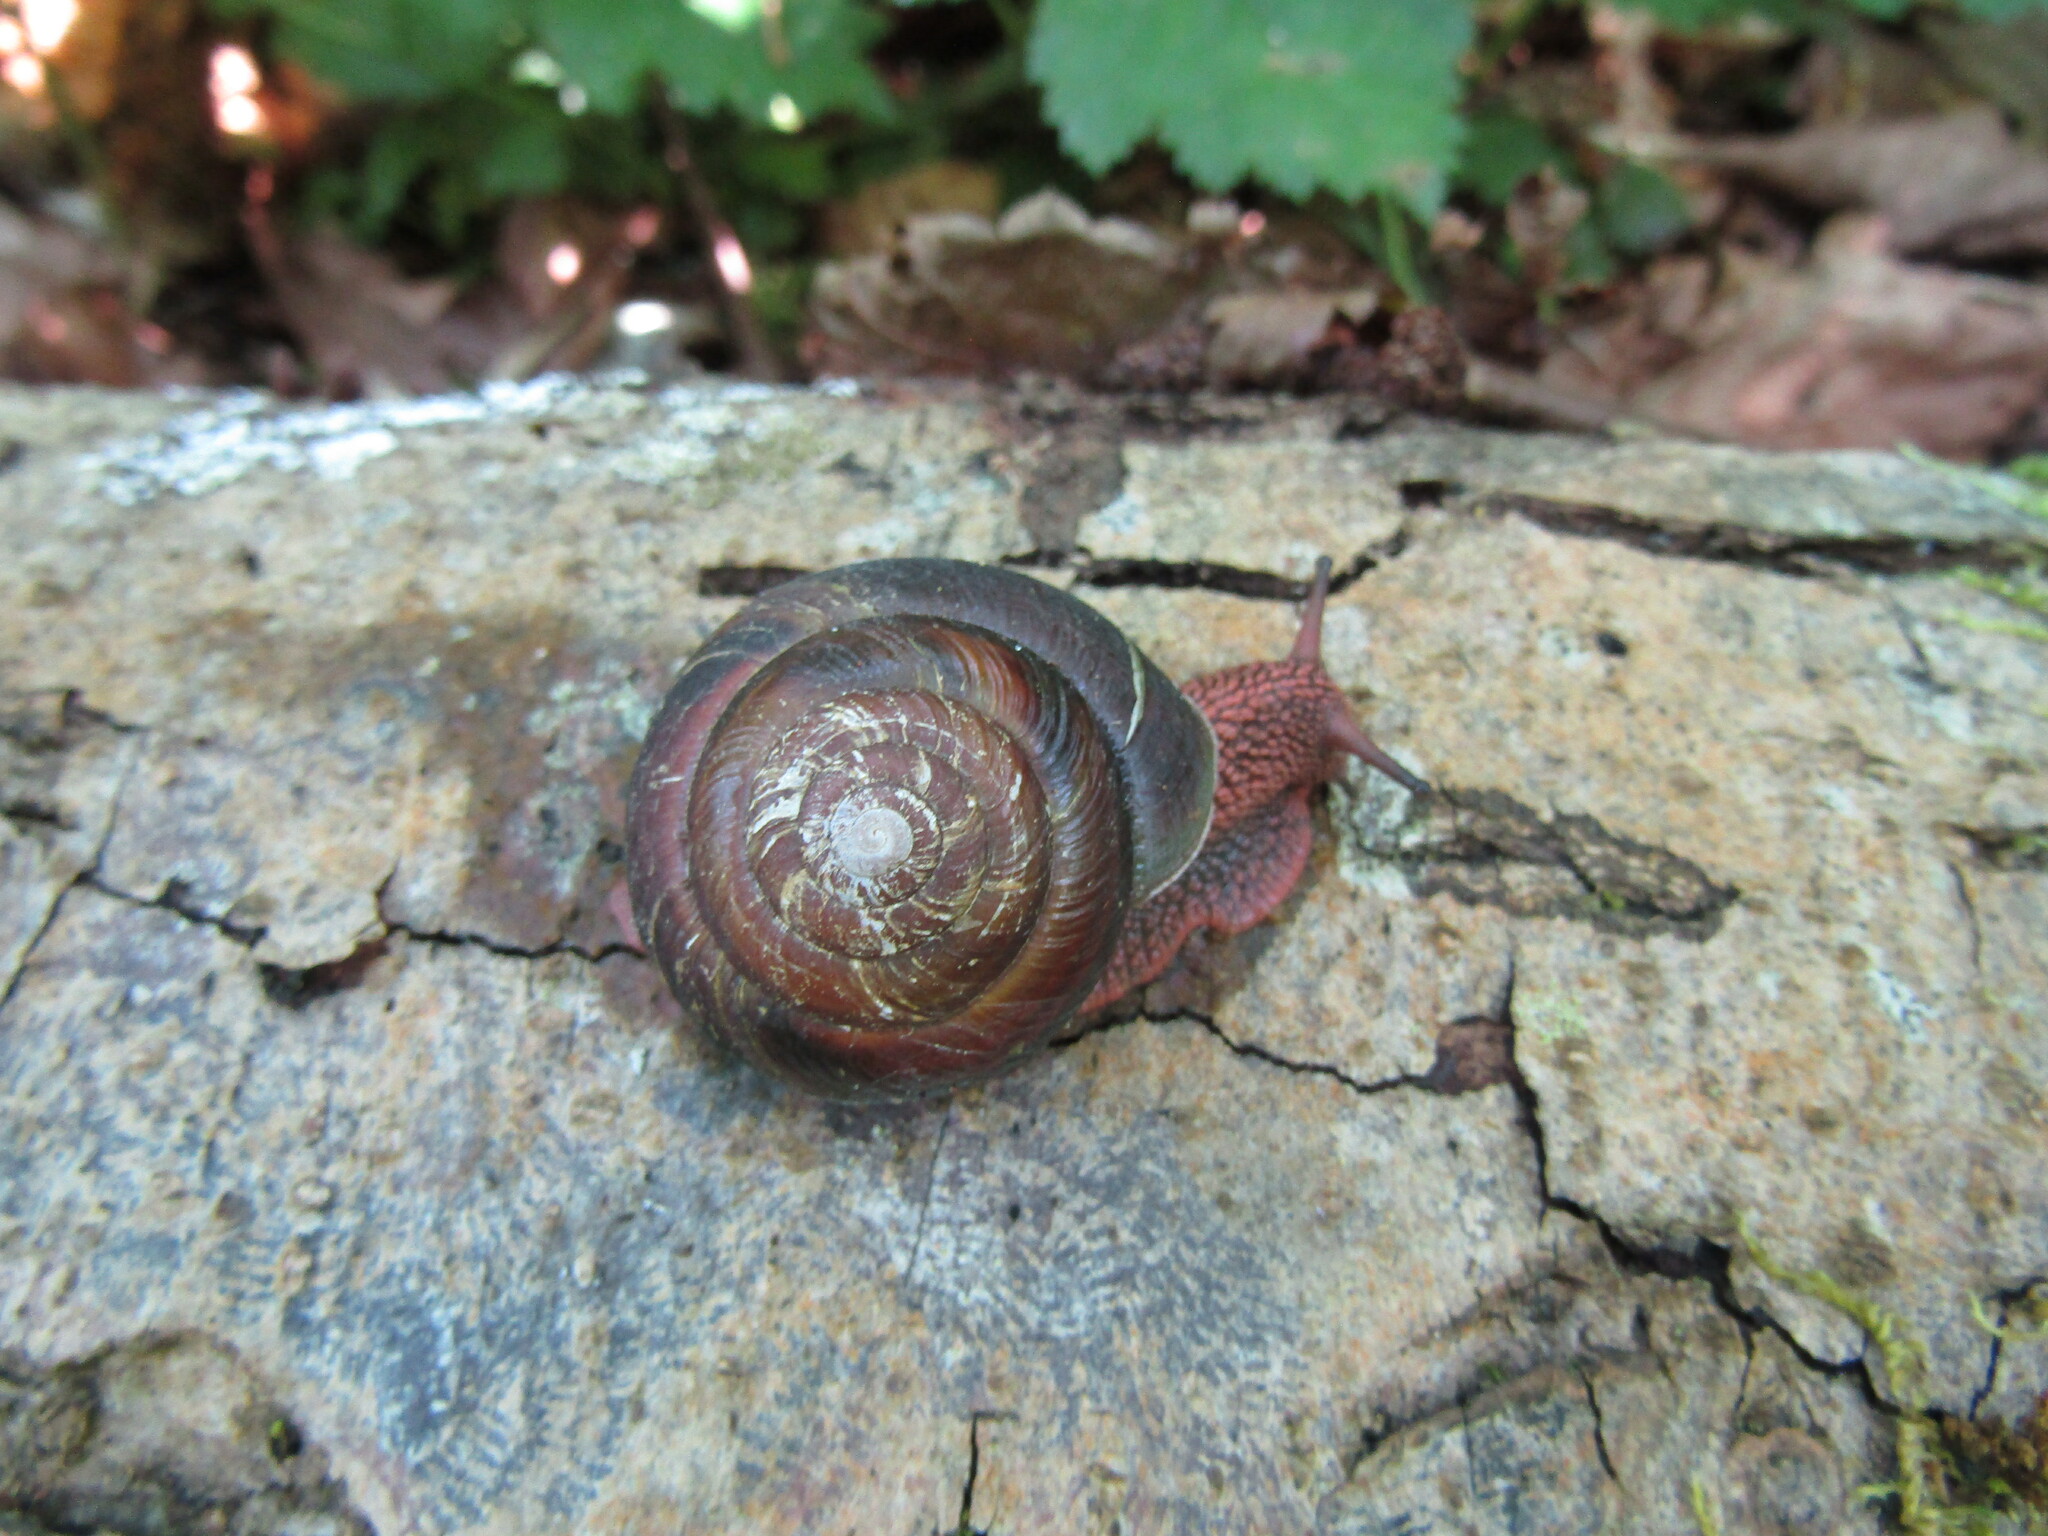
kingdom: Animalia
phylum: Mollusca
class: Gastropoda
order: Stylommatophora
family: Xanthonychidae
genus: Monadenia
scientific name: Monadenia fidelis
